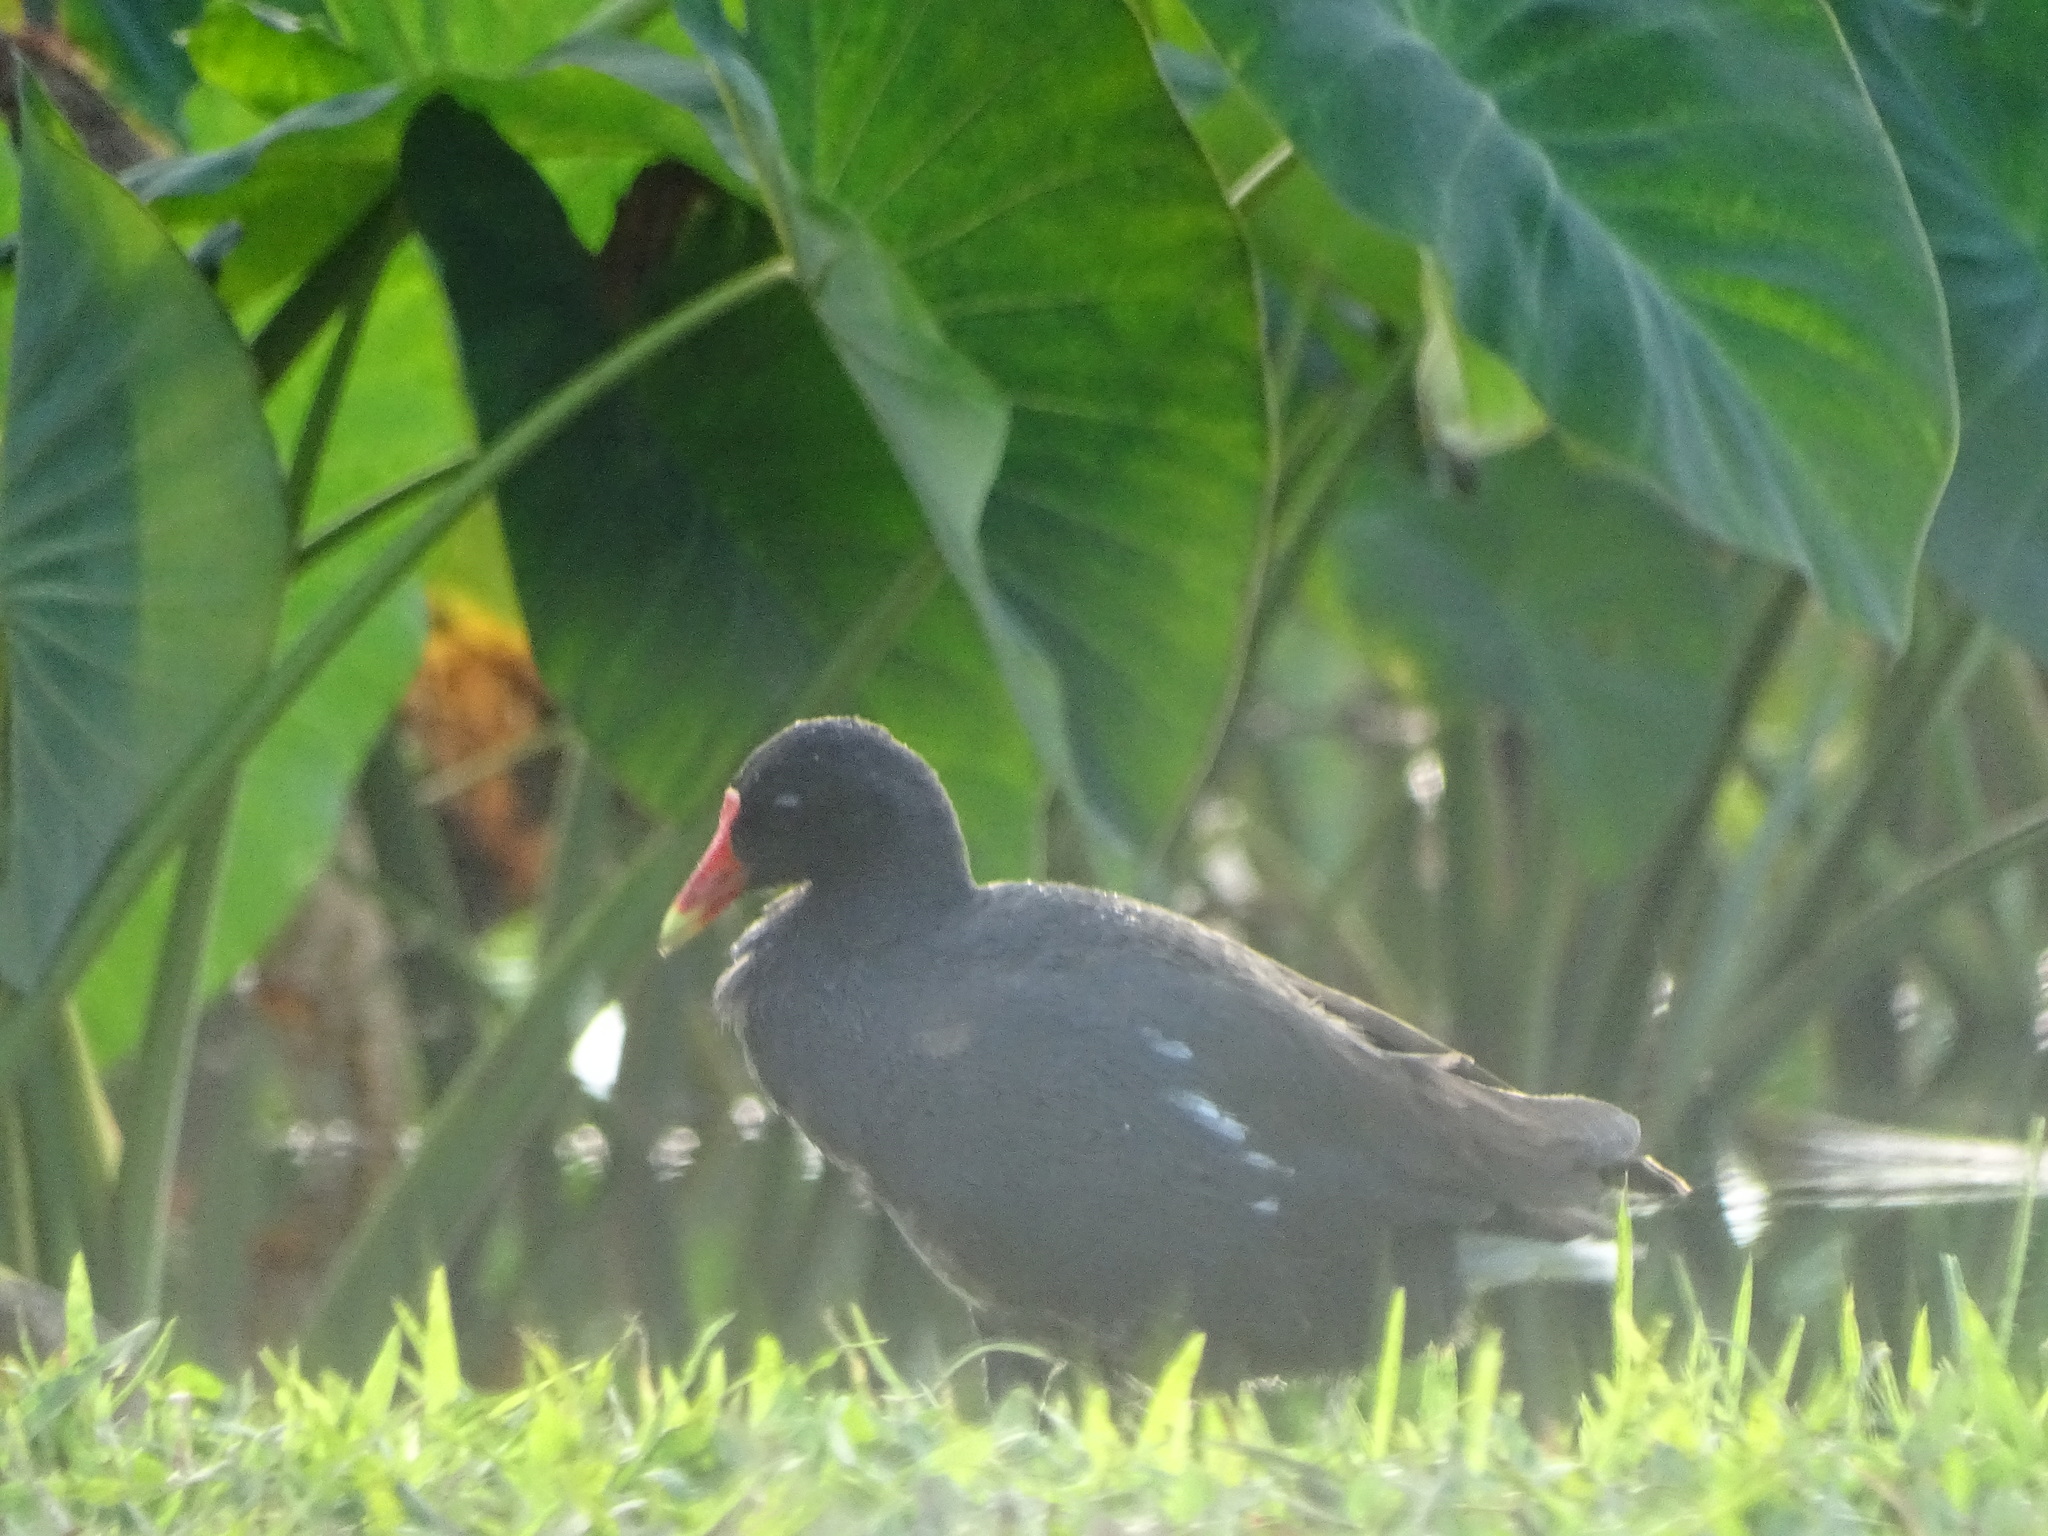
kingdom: Animalia
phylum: Chordata
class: Aves
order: Gruiformes
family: Rallidae
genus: Gallinula
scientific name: Gallinula chloropus
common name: Common moorhen
